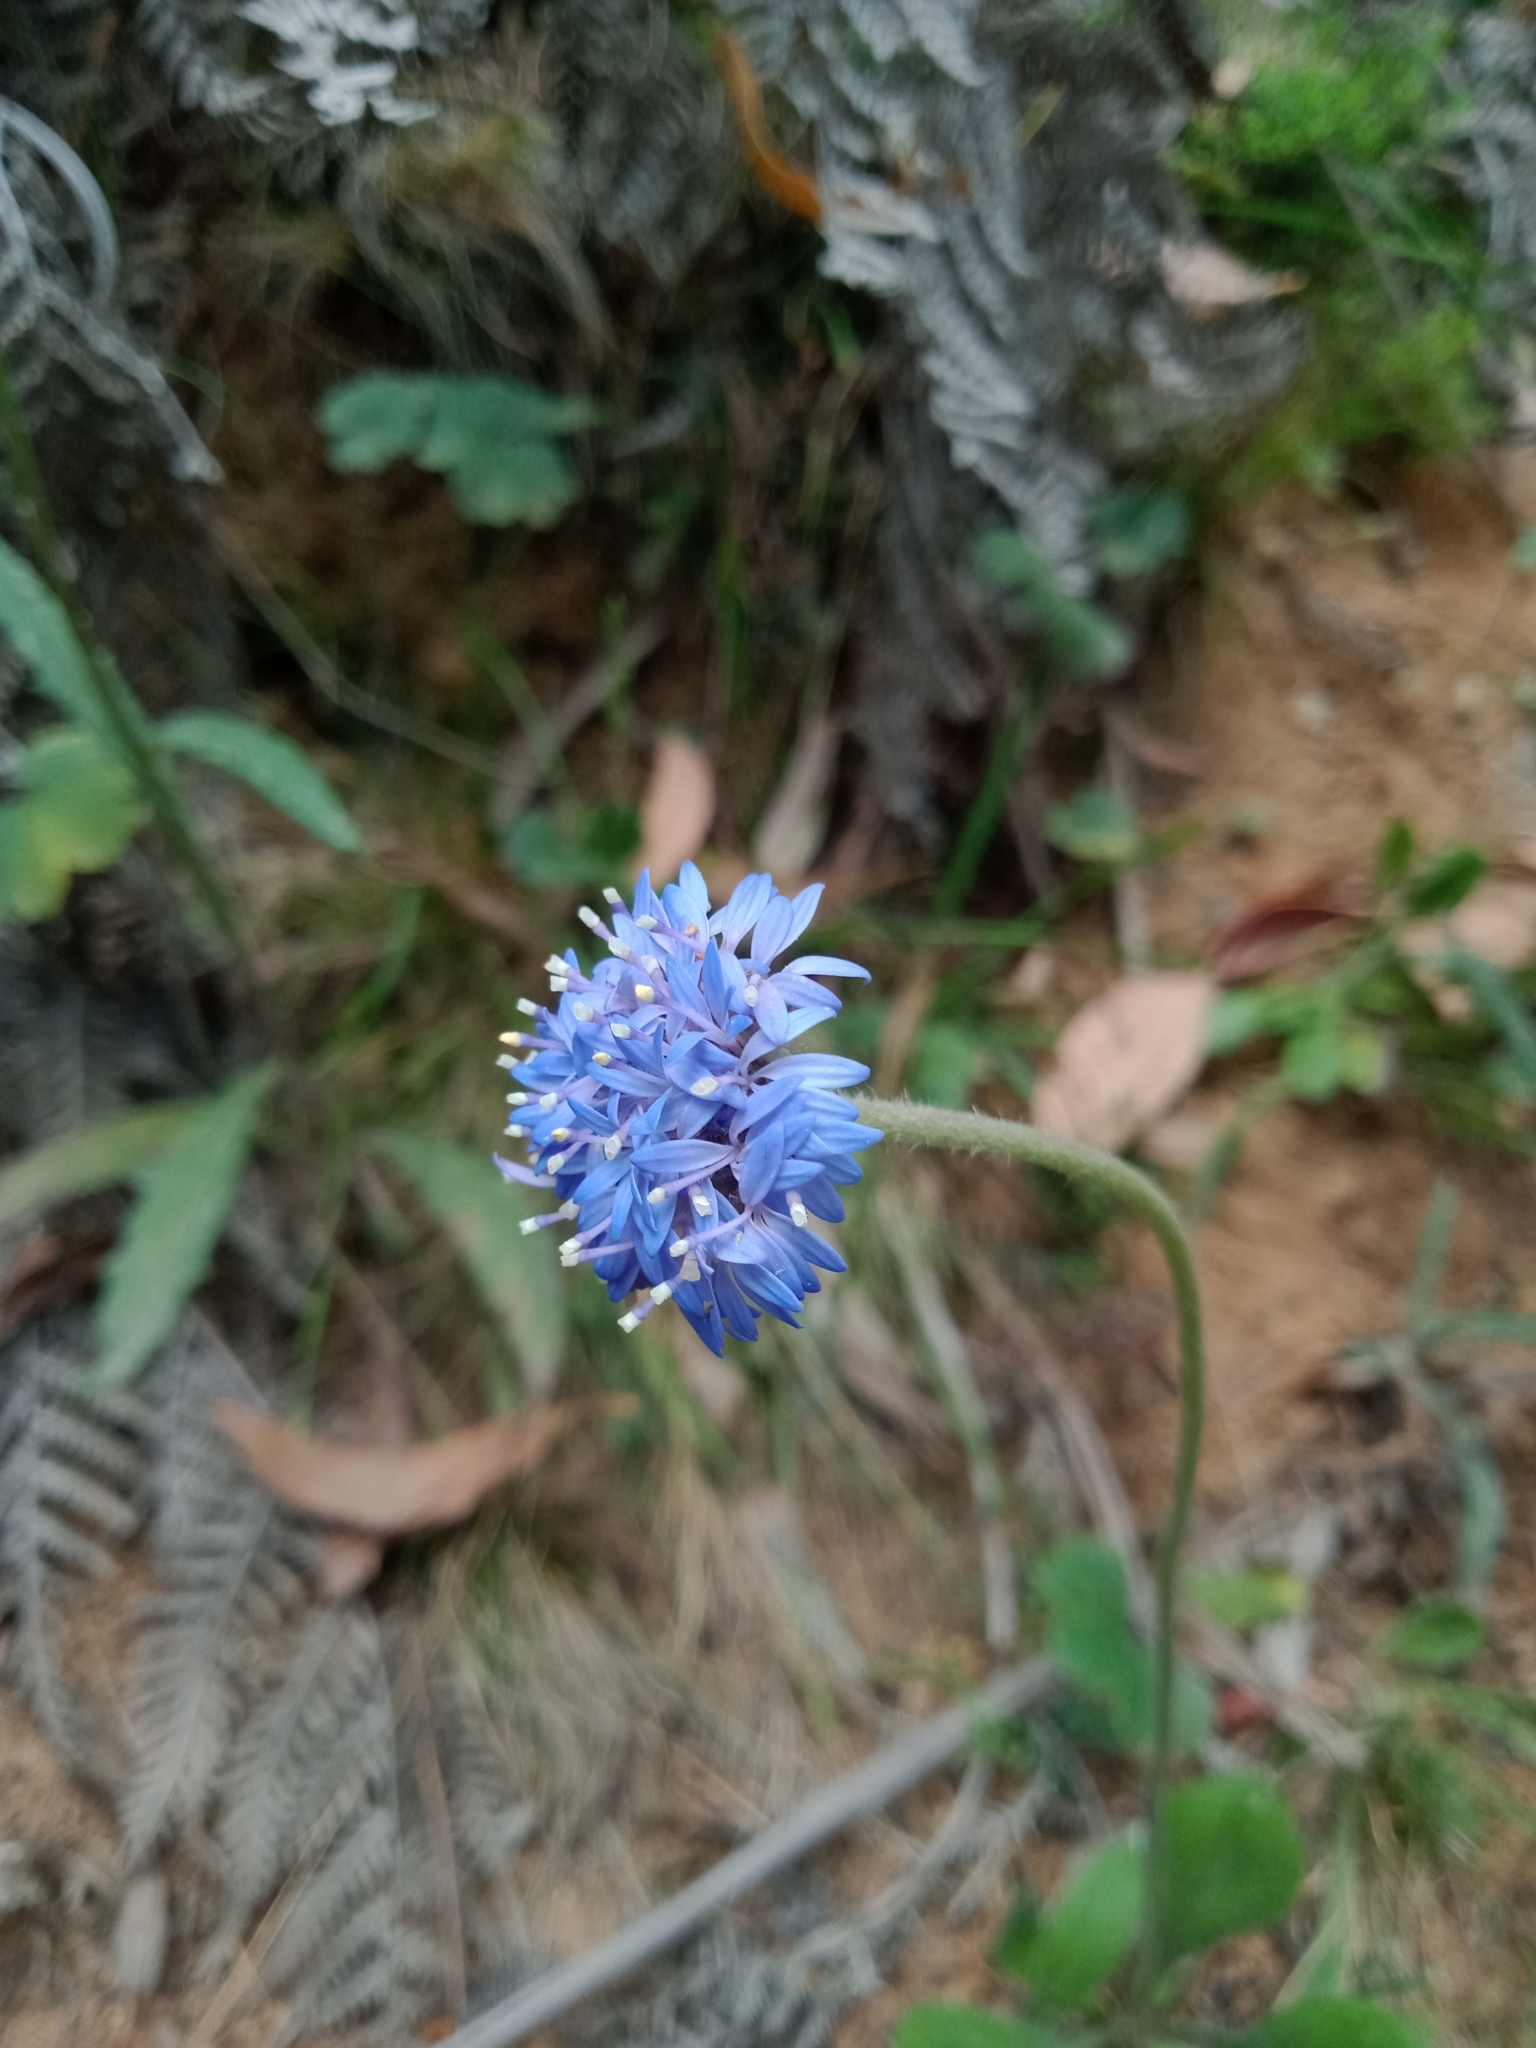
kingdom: Plantae
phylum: Tracheophyta
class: Magnoliopsida
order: Asterales
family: Goodeniaceae
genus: Brunonia
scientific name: Brunonia australis
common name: Blue pincushion
